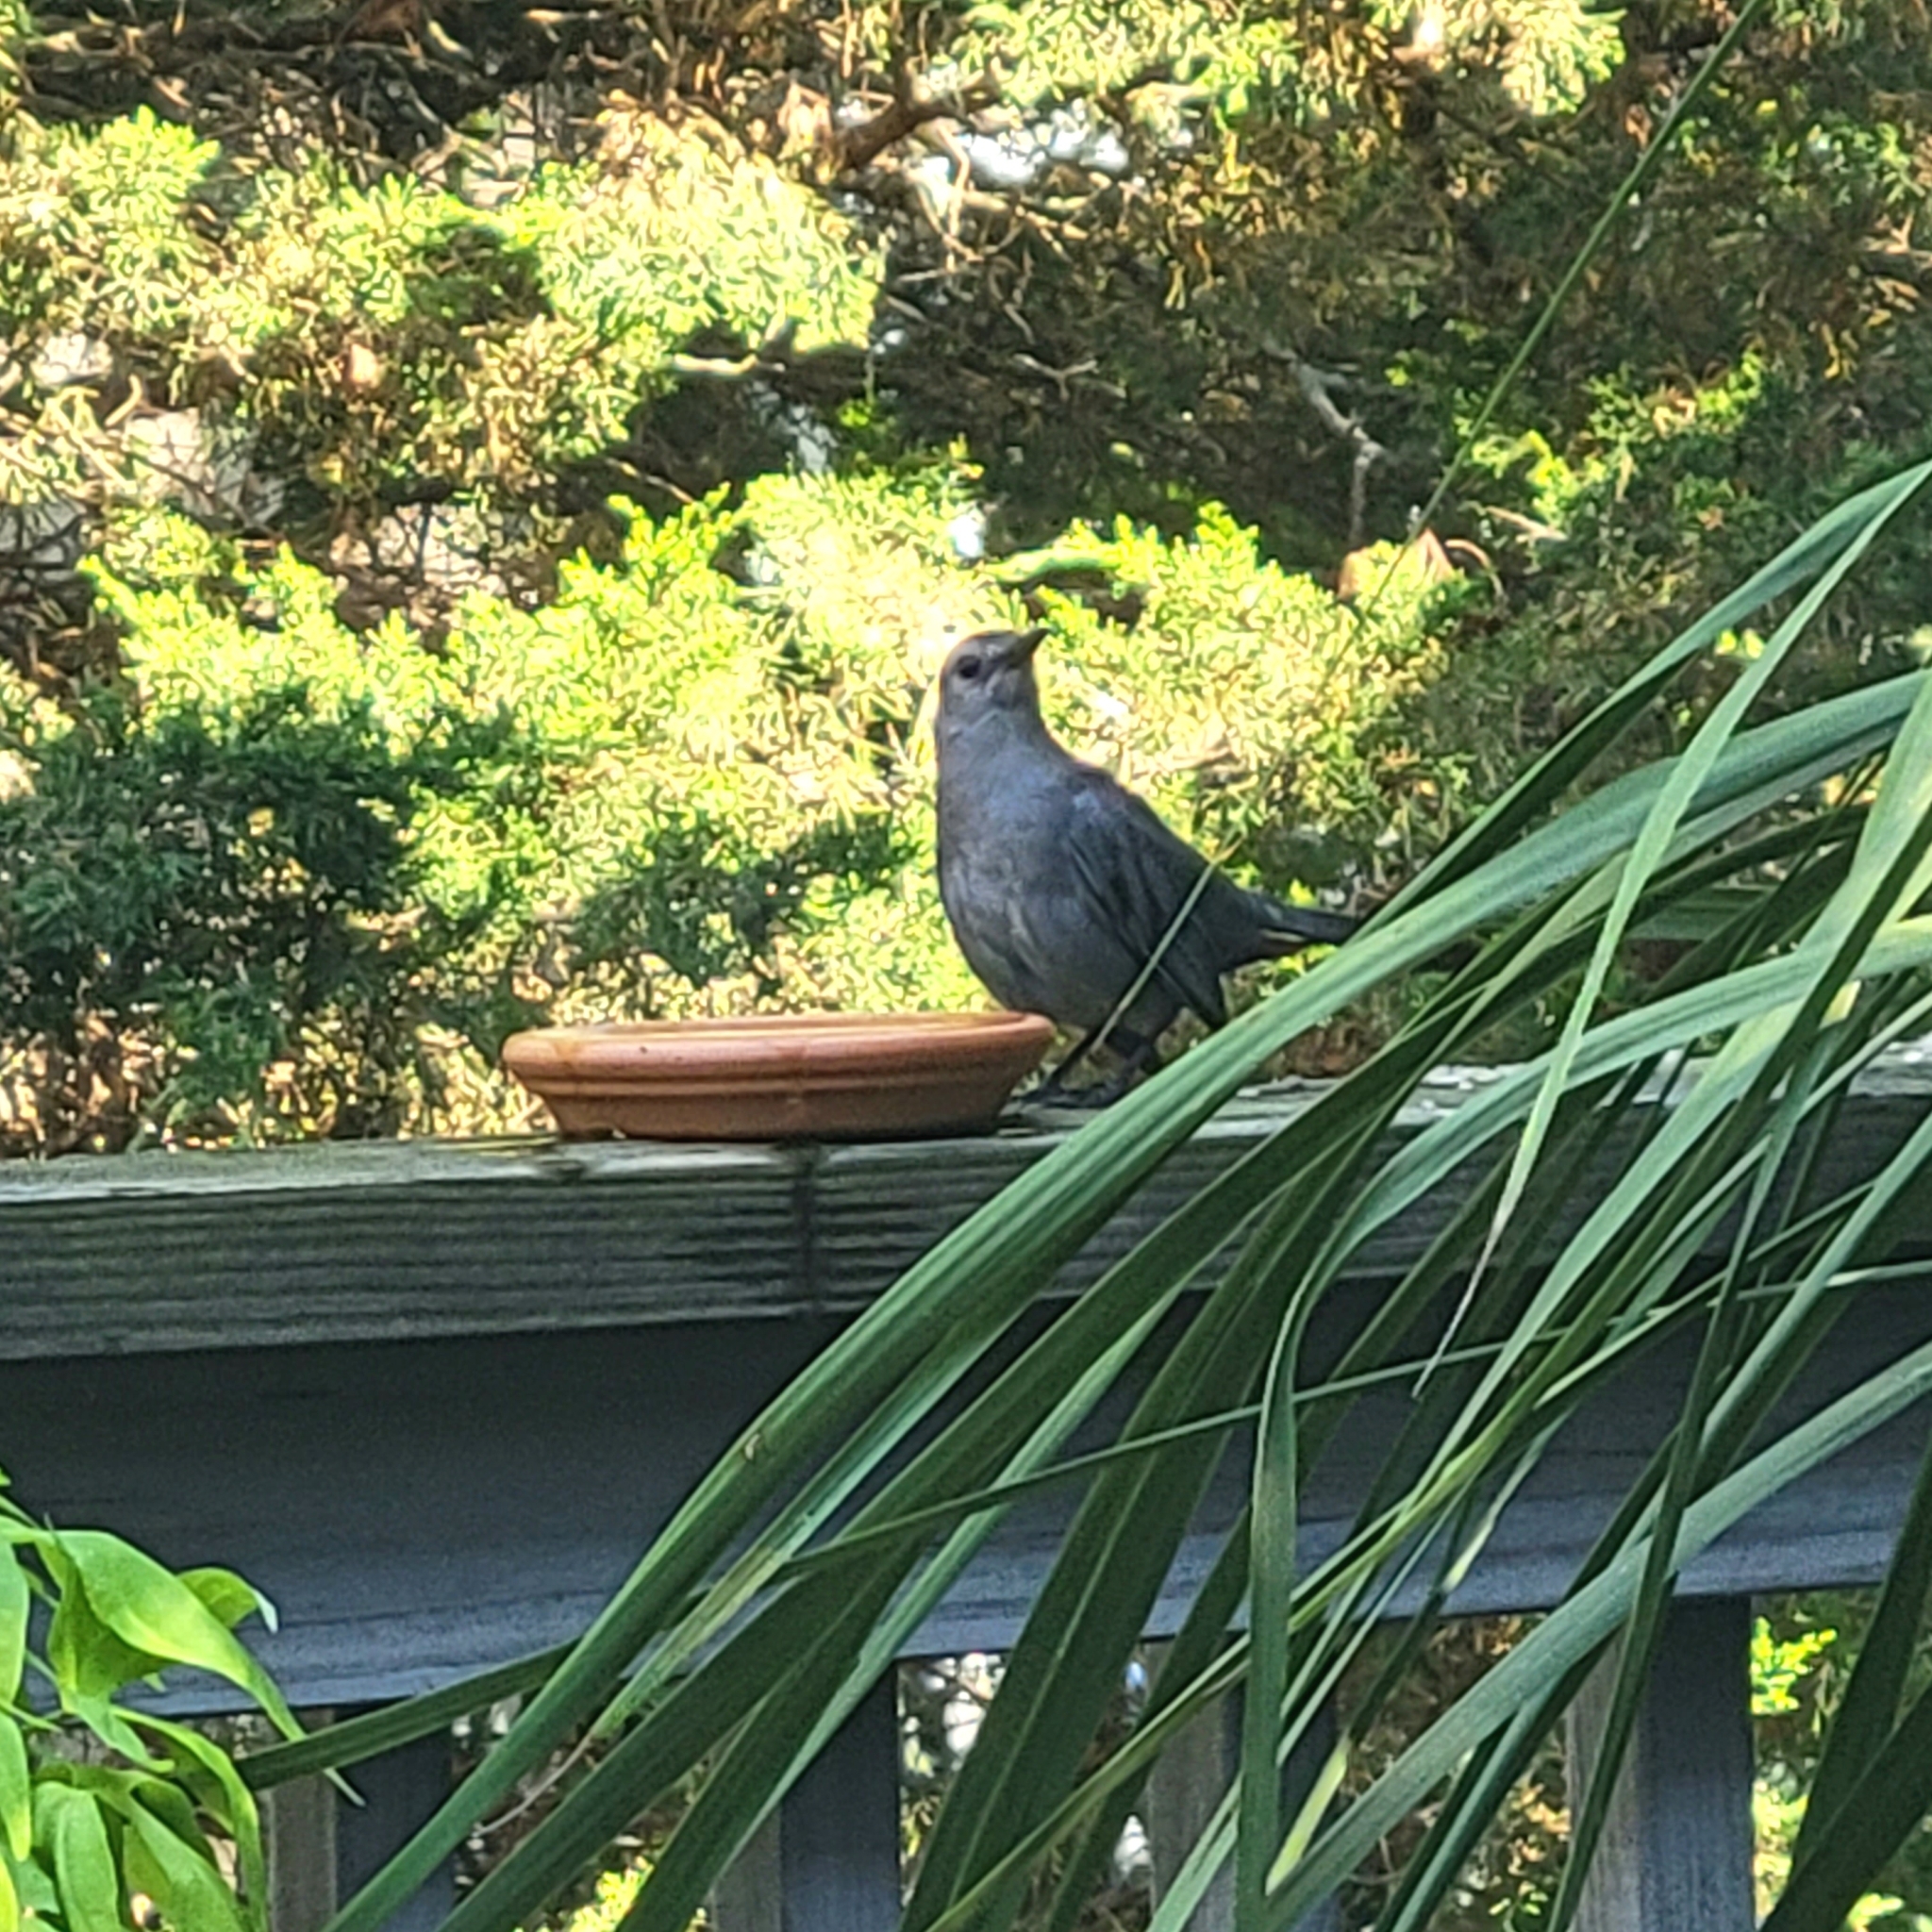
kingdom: Animalia
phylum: Chordata
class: Aves
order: Passeriformes
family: Mimidae
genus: Dumetella
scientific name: Dumetella carolinensis
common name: Gray catbird
